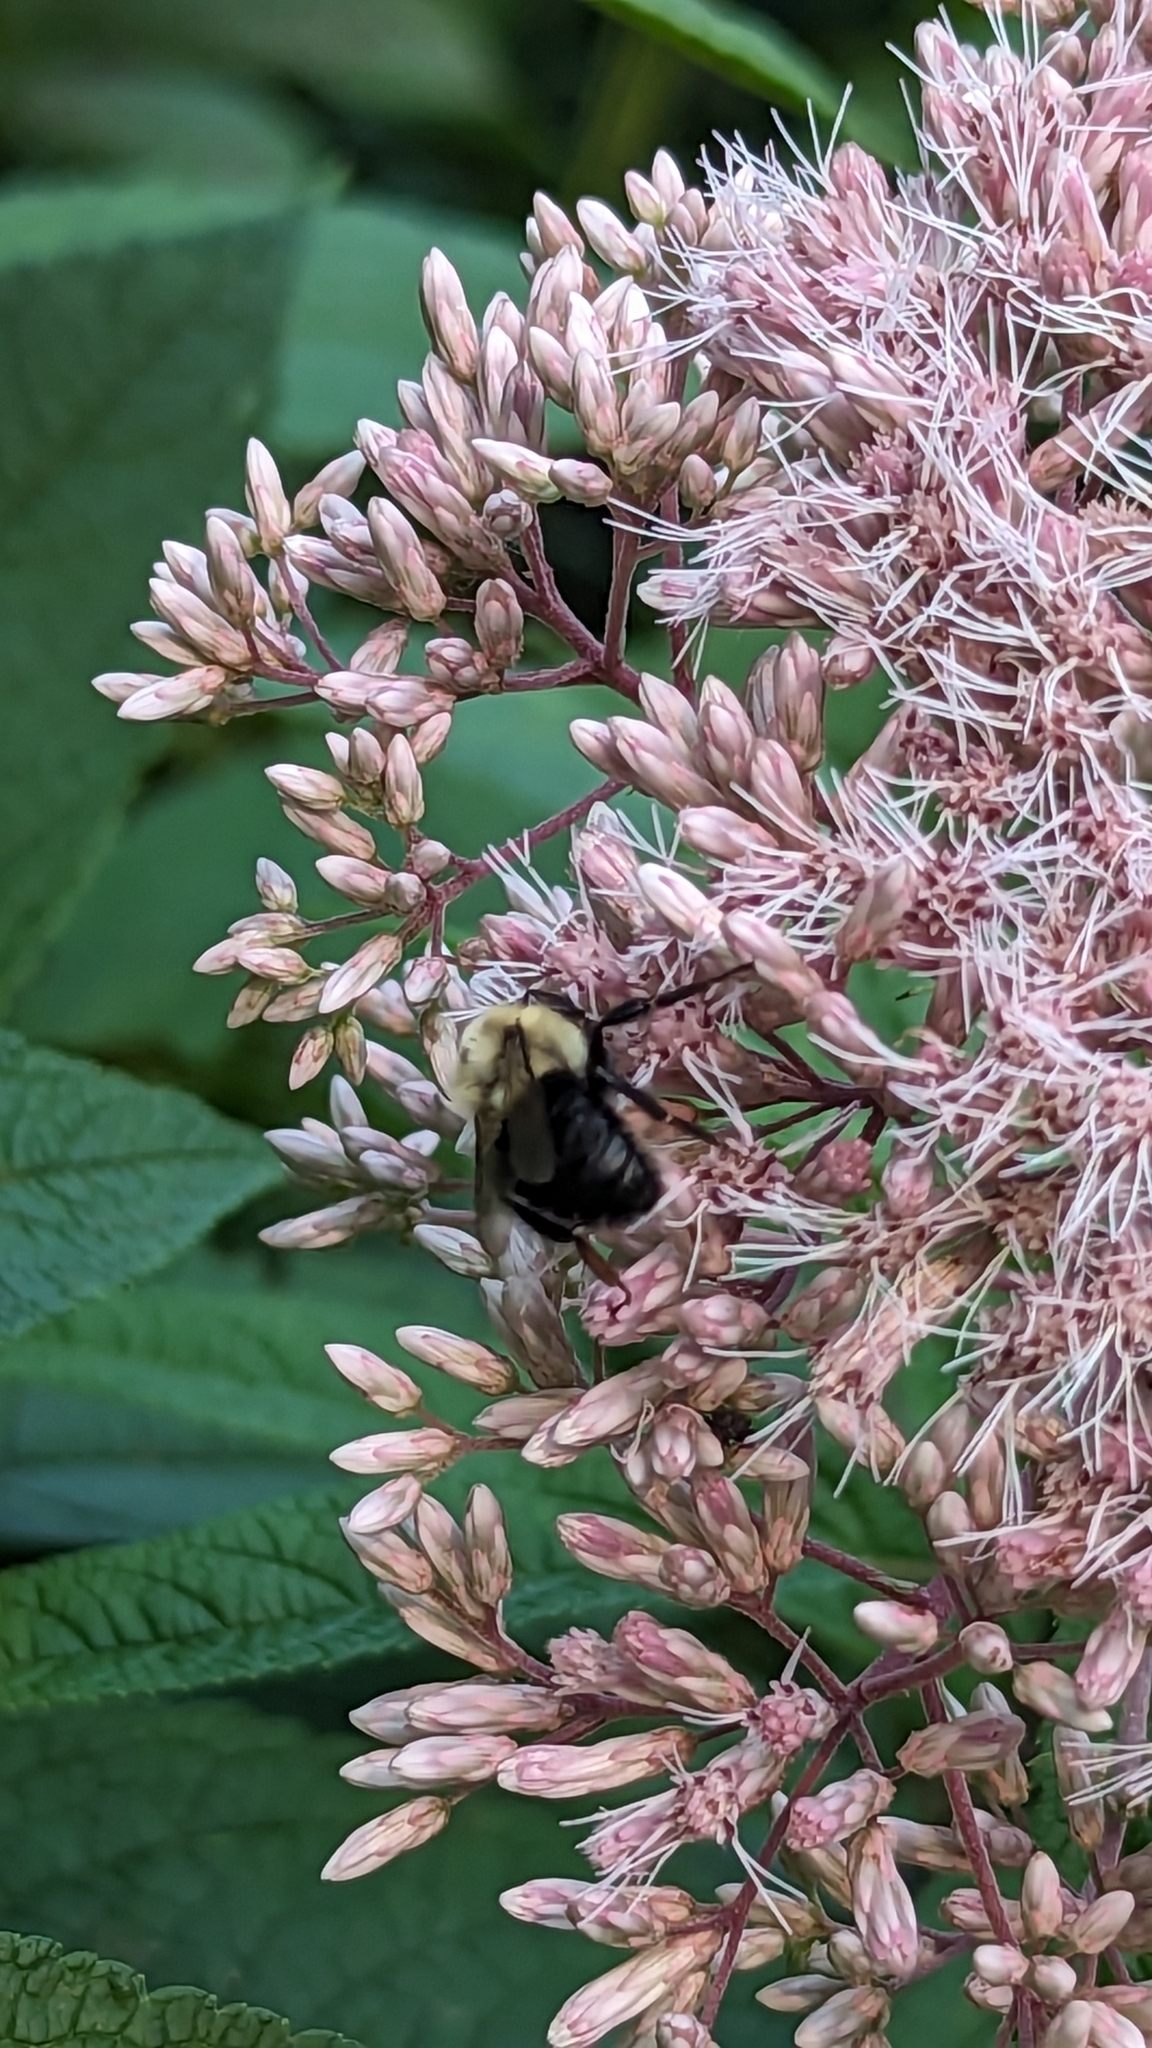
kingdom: Animalia
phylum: Arthropoda
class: Insecta
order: Hymenoptera
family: Apidae
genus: Bombus
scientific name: Bombus impatiens
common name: Common eastern bumble bee
